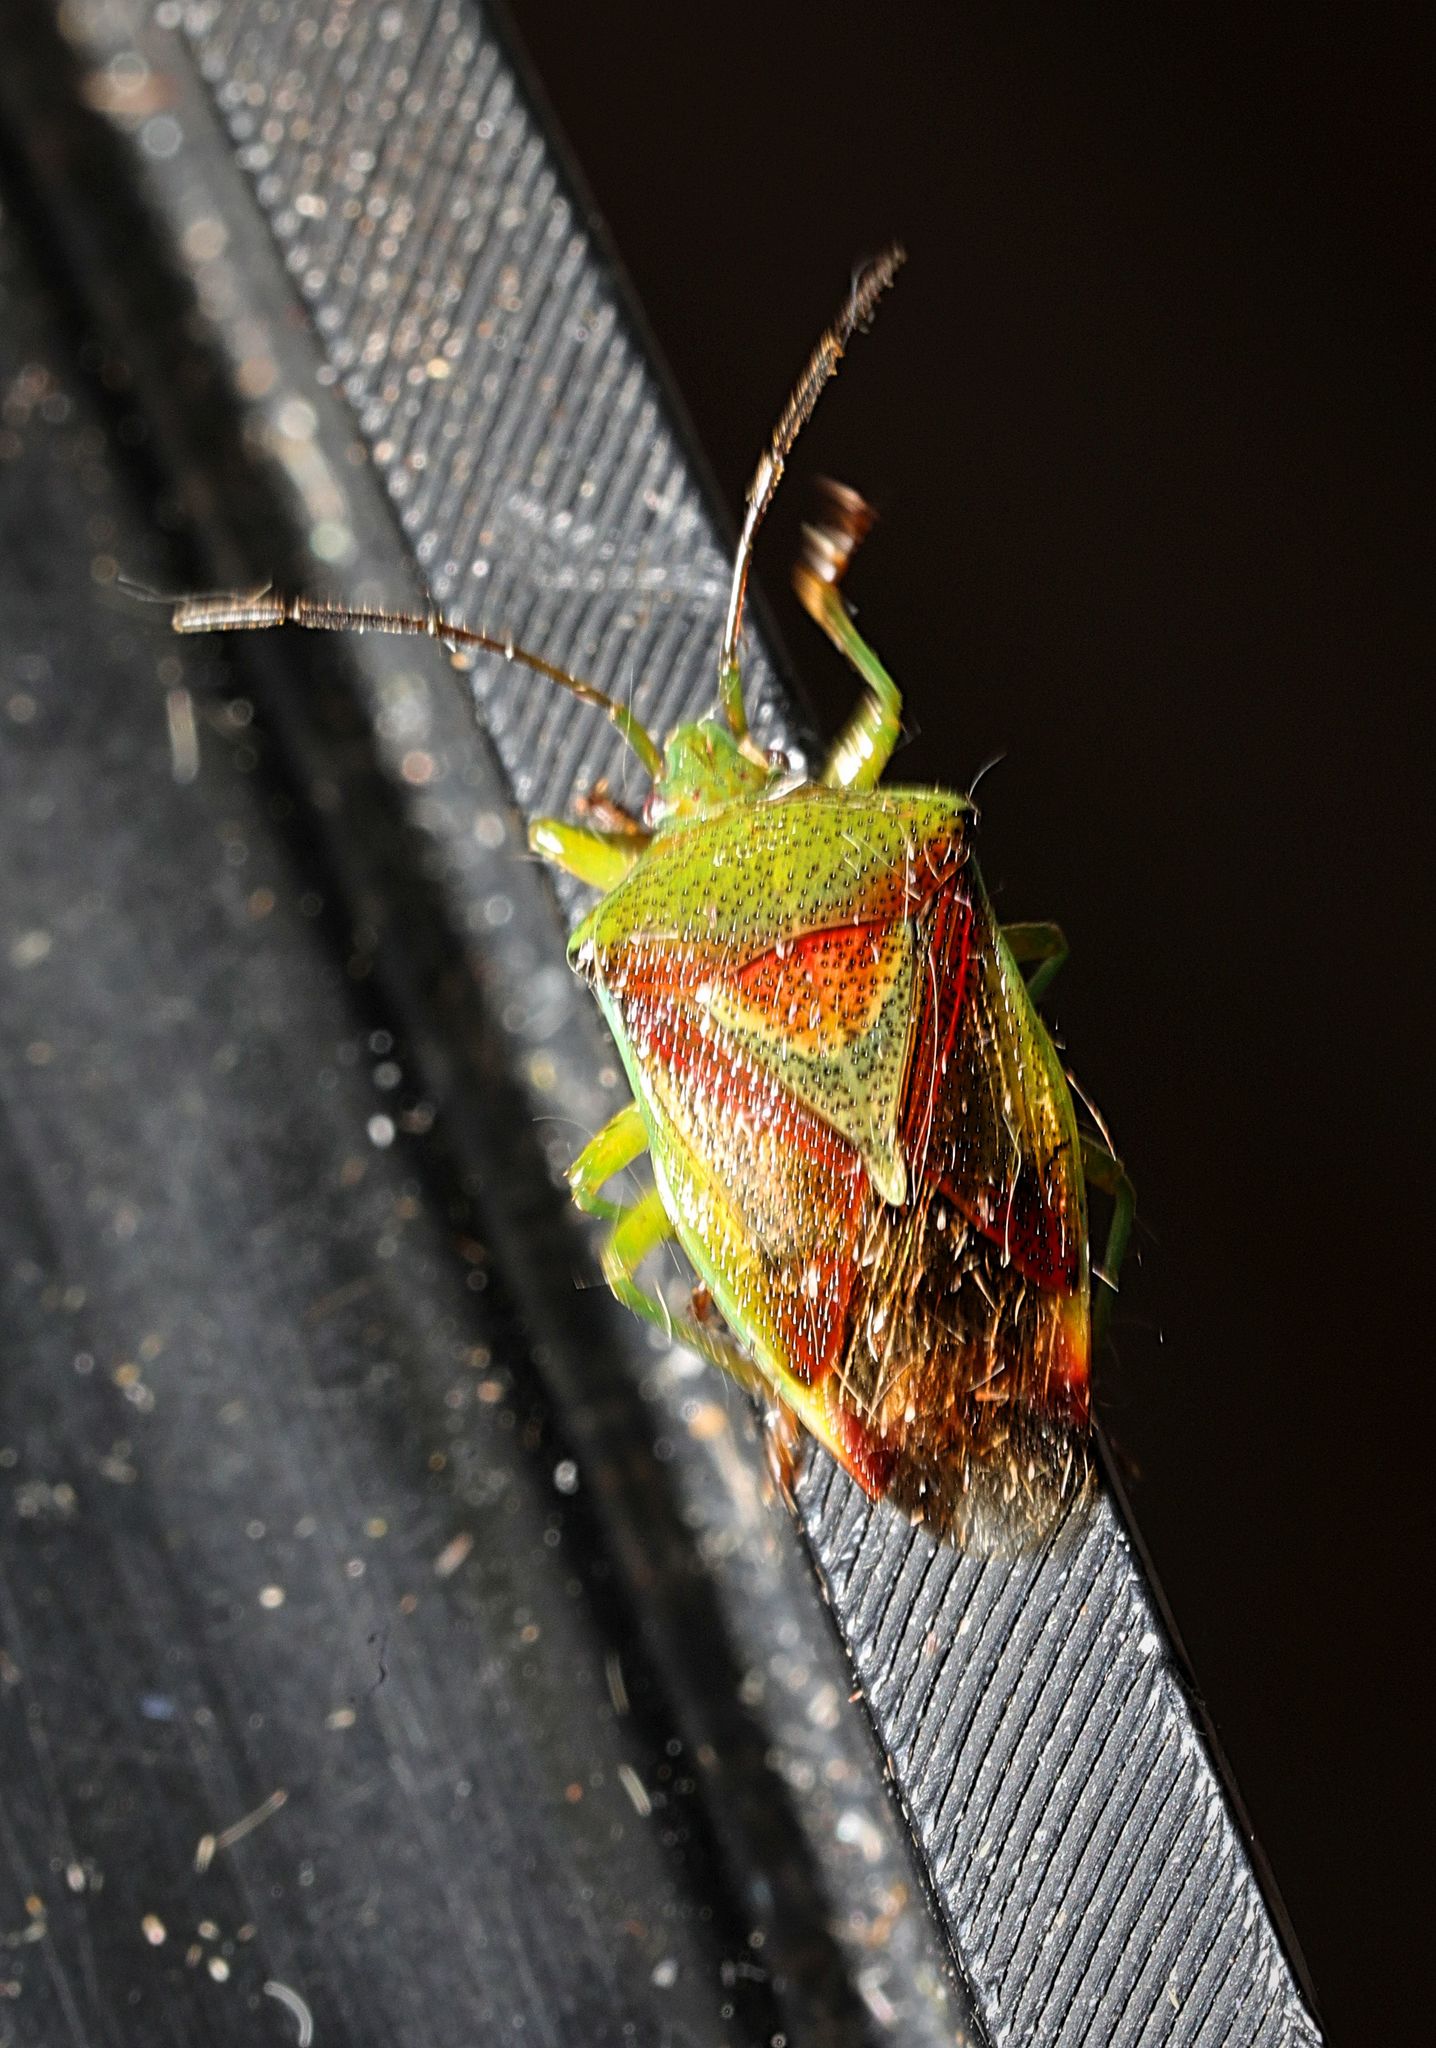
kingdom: Animalia
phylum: Arthropoda
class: Insecta
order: Hemiptera
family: Acanthosomatidae
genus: Elasmostethus
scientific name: Elasmostethus interstinctus
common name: Birch shieldbug
